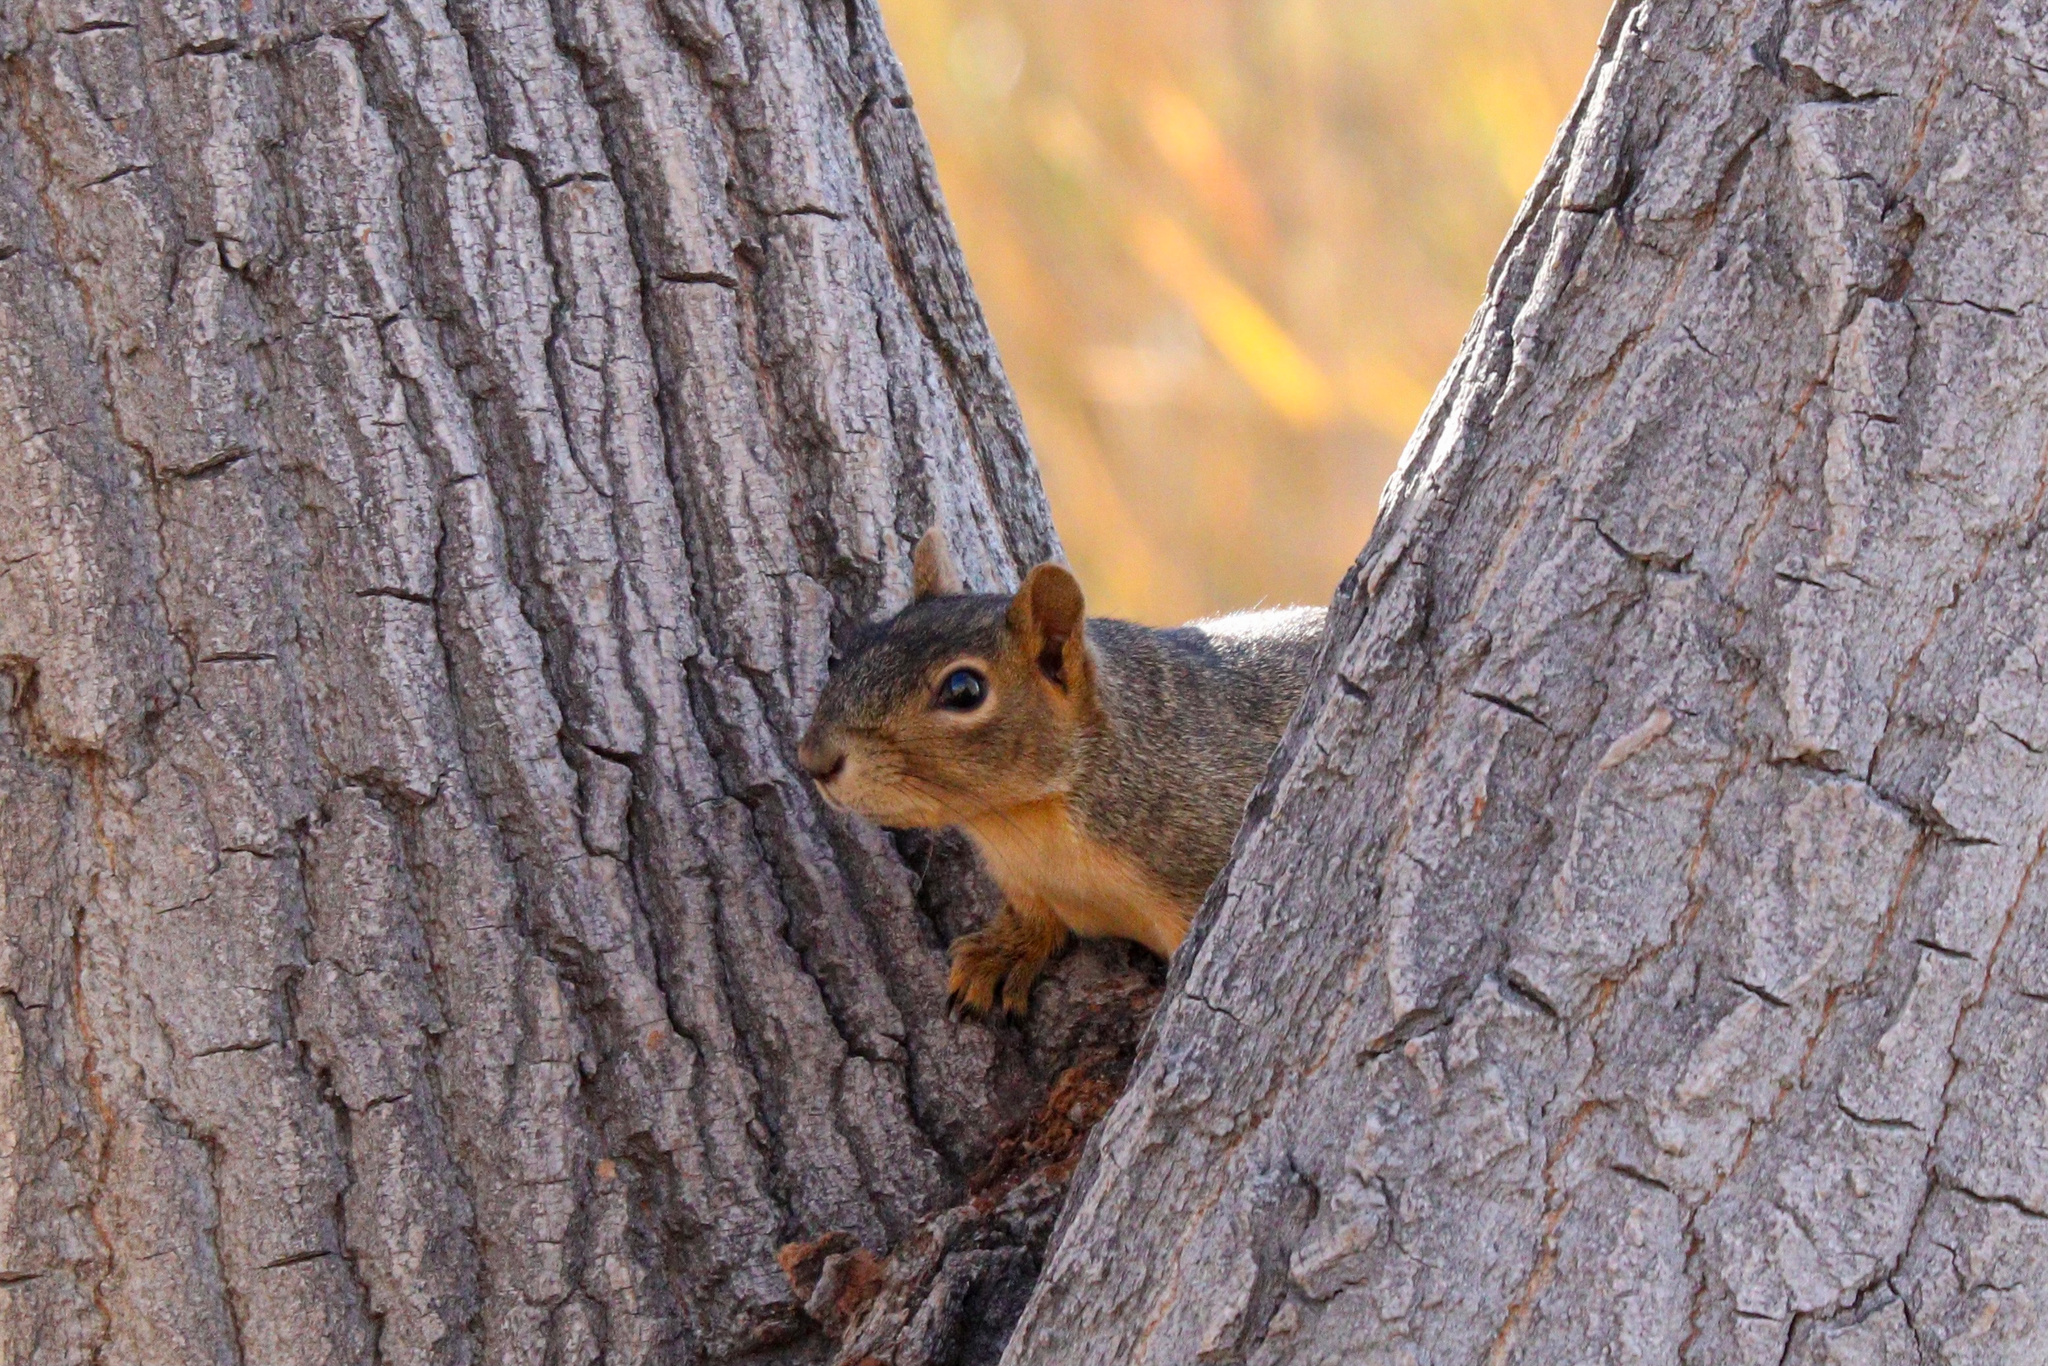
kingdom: Animalia
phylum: Chordata
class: Mammalia
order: Rodentia
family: Sciuridae
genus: Sciurus
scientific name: Sciurus niger
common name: Fox squirrel
